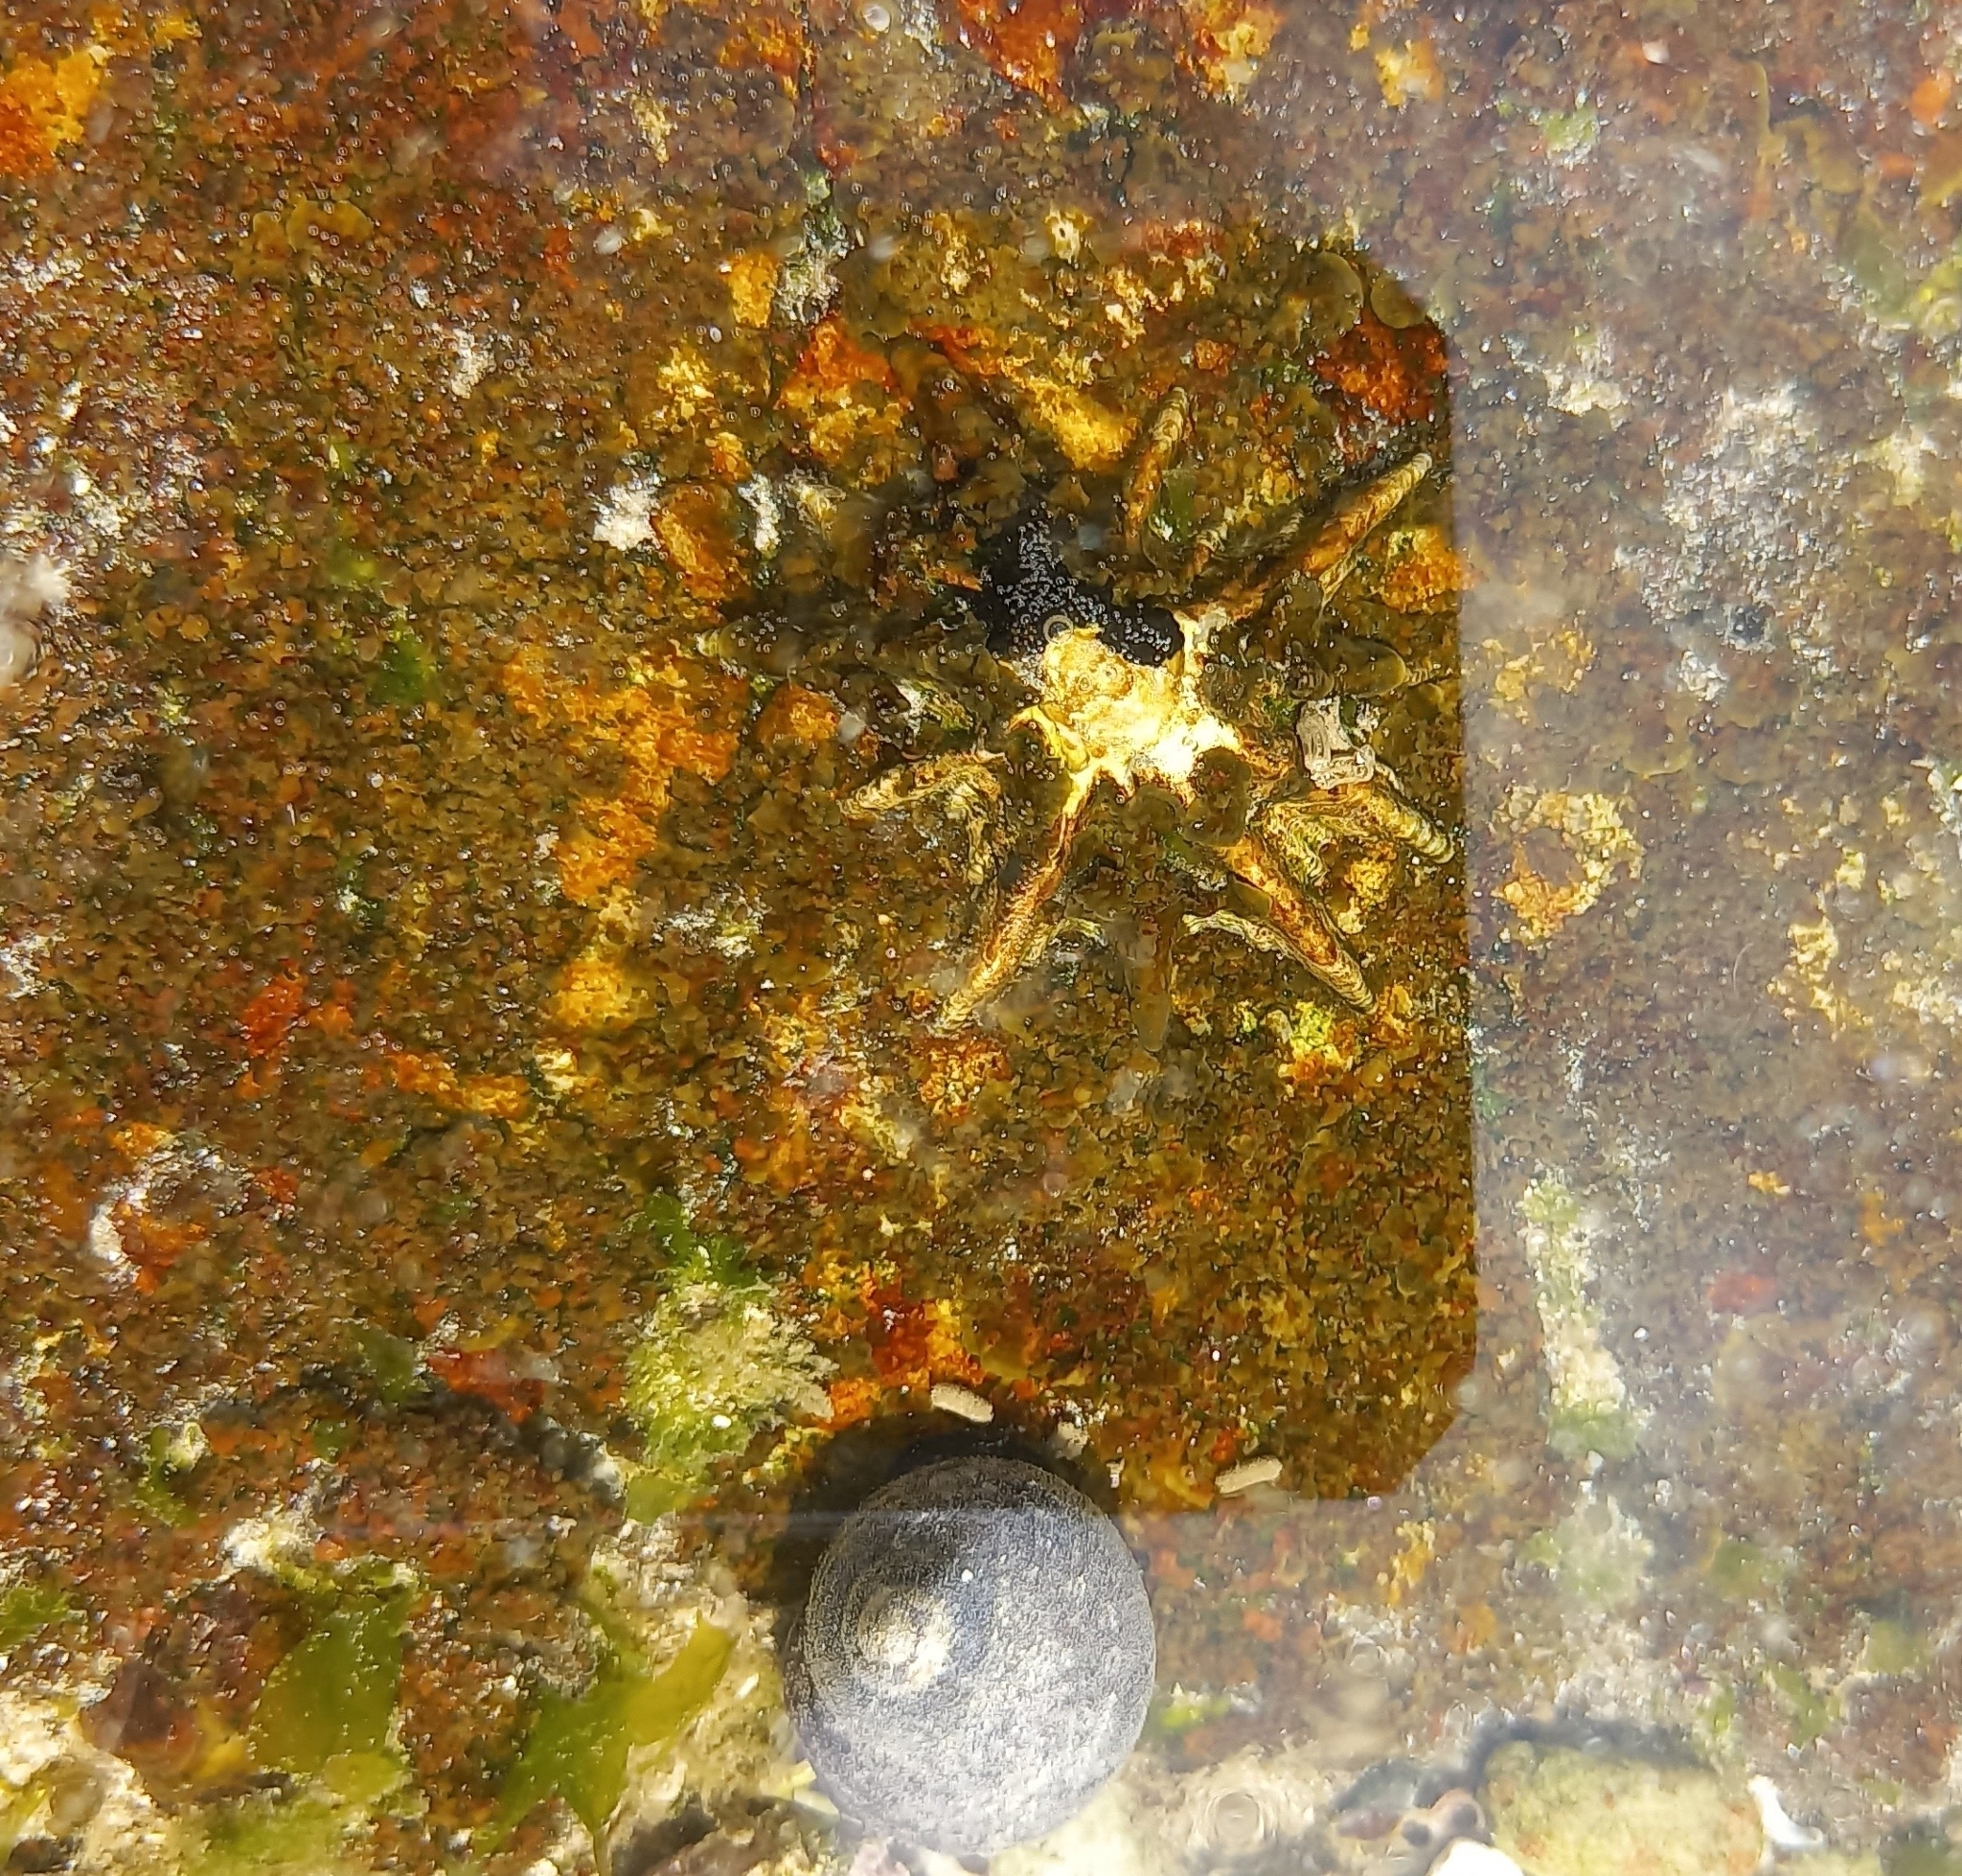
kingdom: Animalia
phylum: Mollusca
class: Gastropoda
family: Patellidae
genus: Scutellastra
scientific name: Scutellastra longicosta
